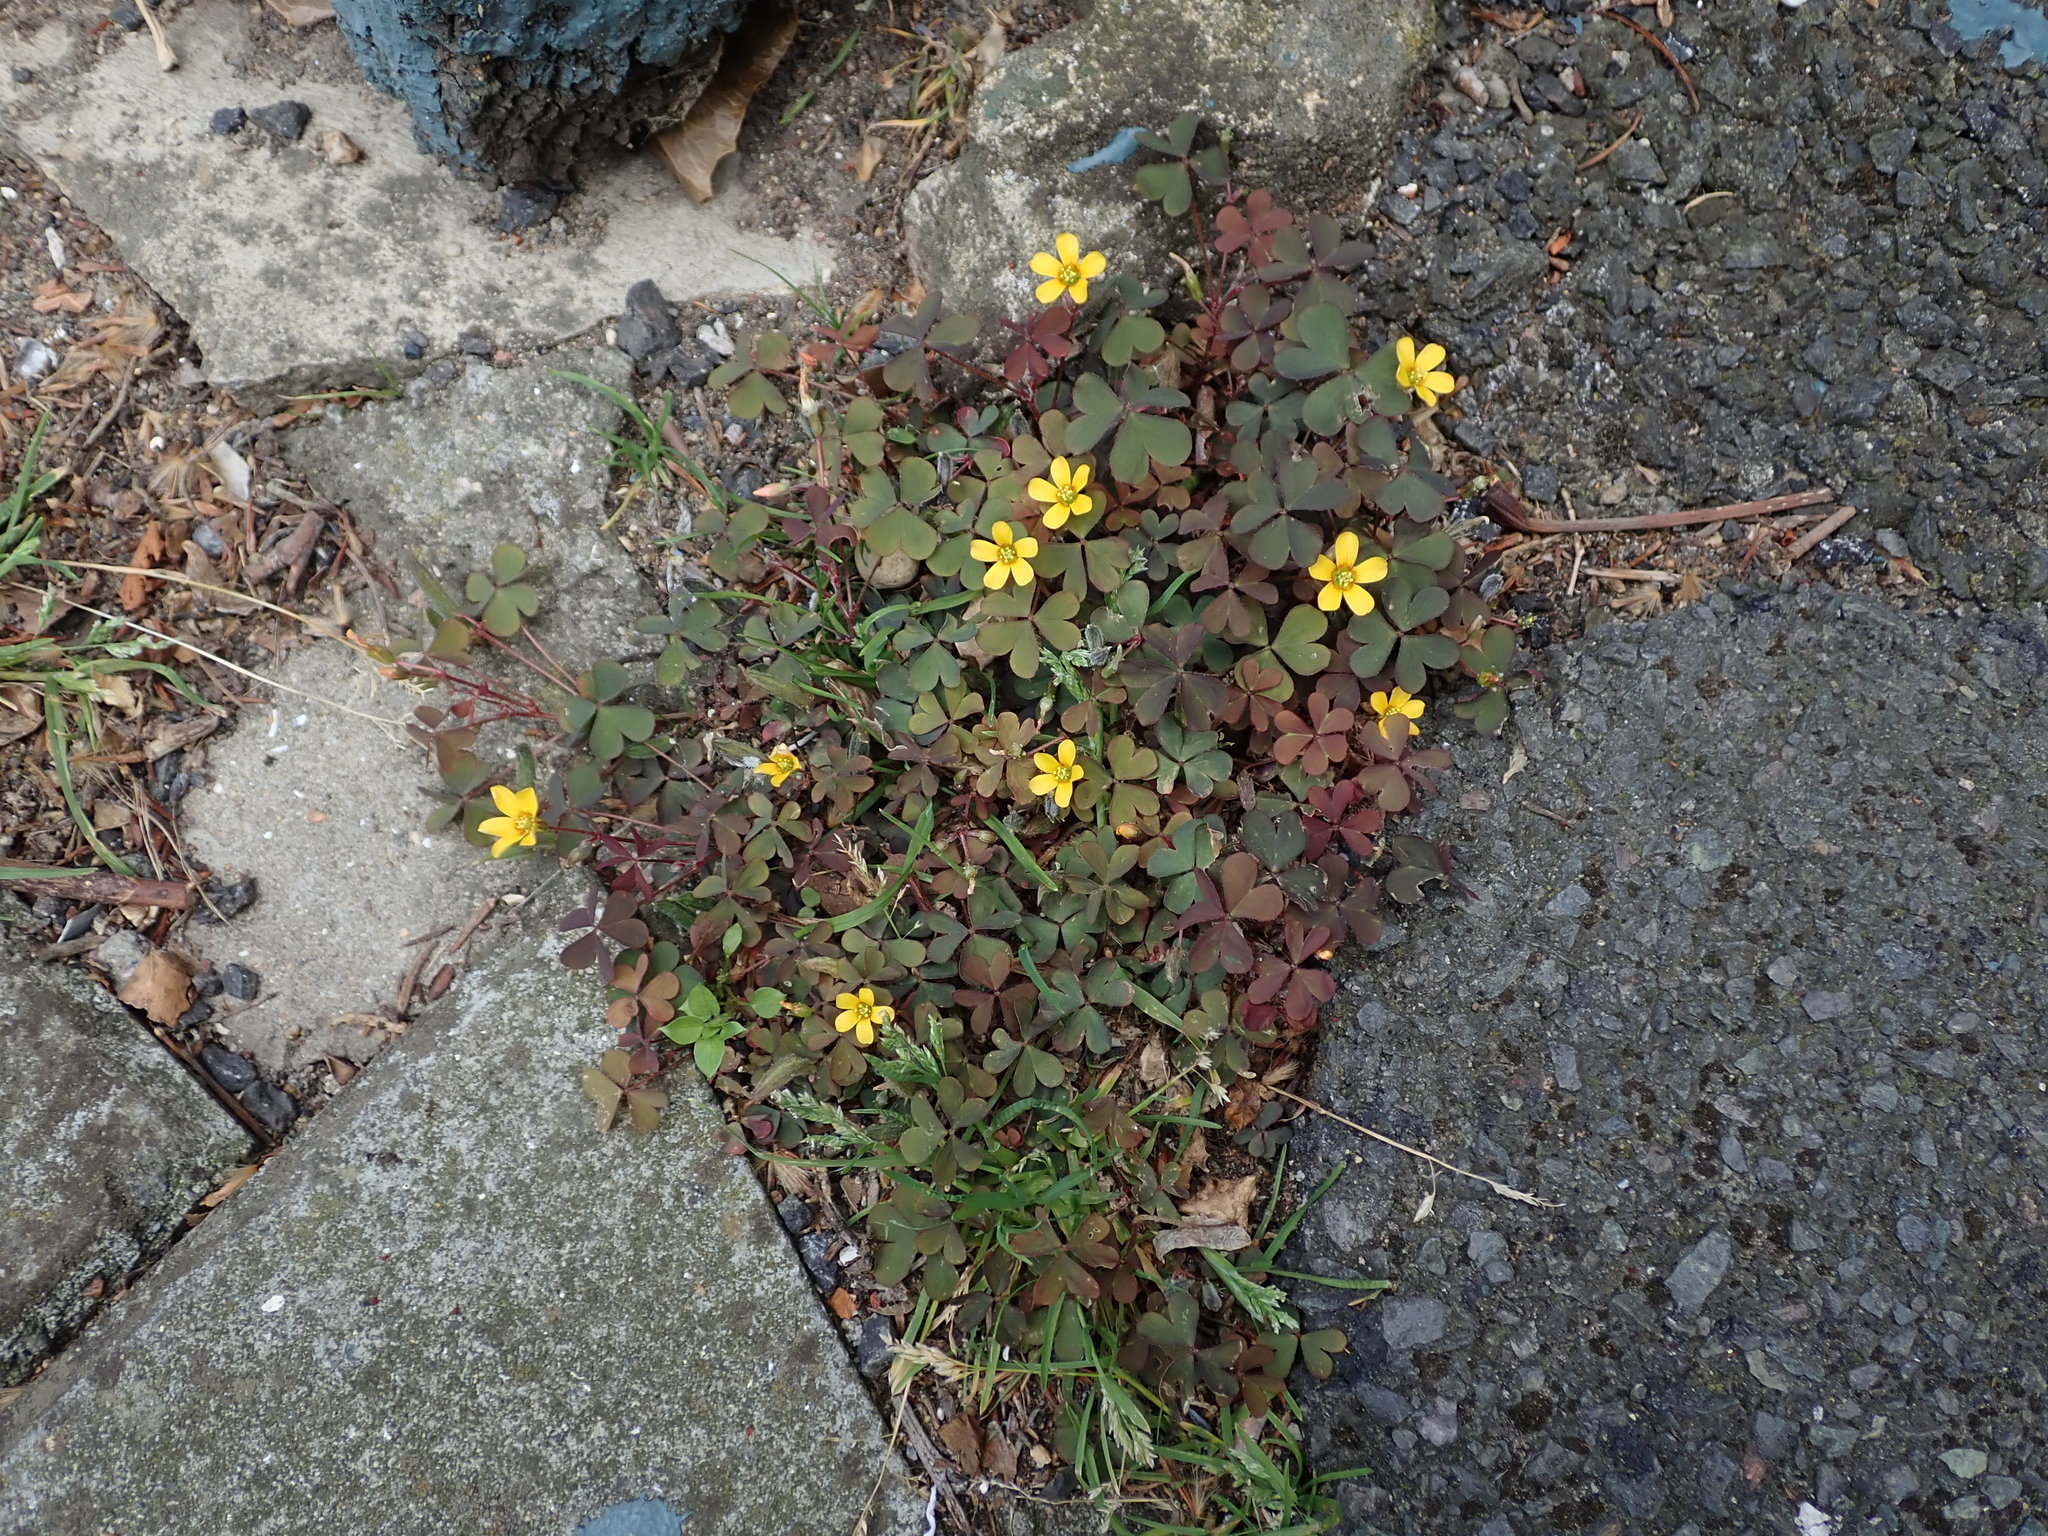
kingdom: Plantae
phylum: Tracheophyta
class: Magnoliopsida
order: Oxalidales
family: Oxalidaceae
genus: Oxalis
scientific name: Oxalis corniculata
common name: Procumbent yellow-sorrel
